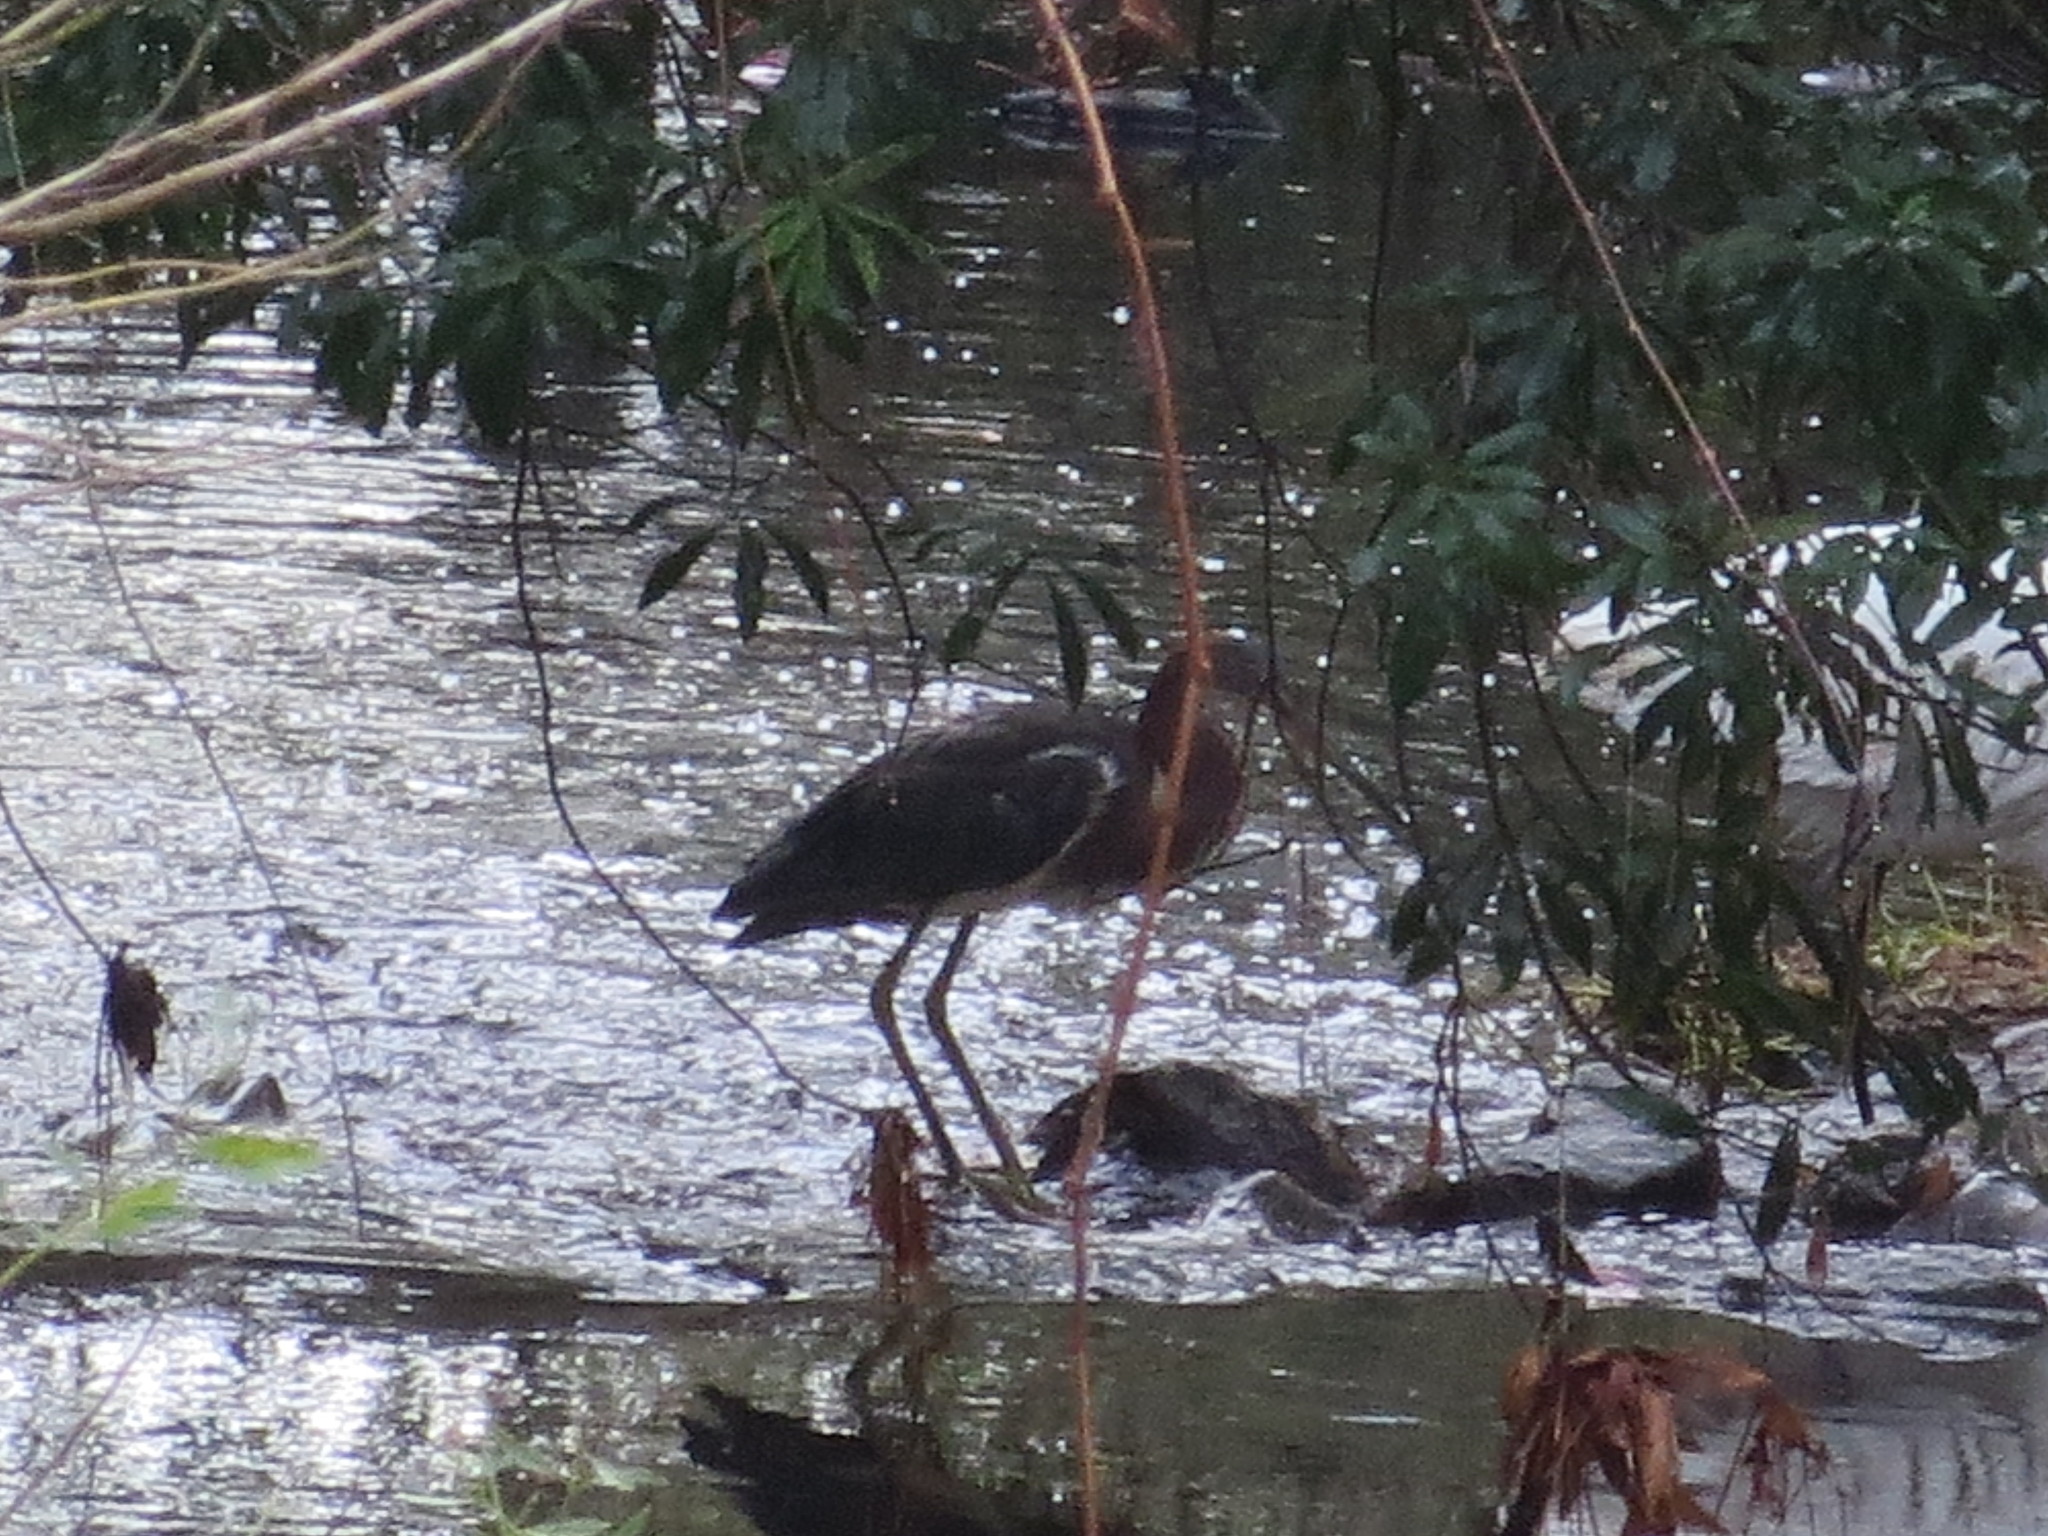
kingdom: Animalia
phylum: Chordata
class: Aves
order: Pelecaniformes
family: Ardeidae
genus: Egretta
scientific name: Egretta tricolor
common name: Tricolored heron
